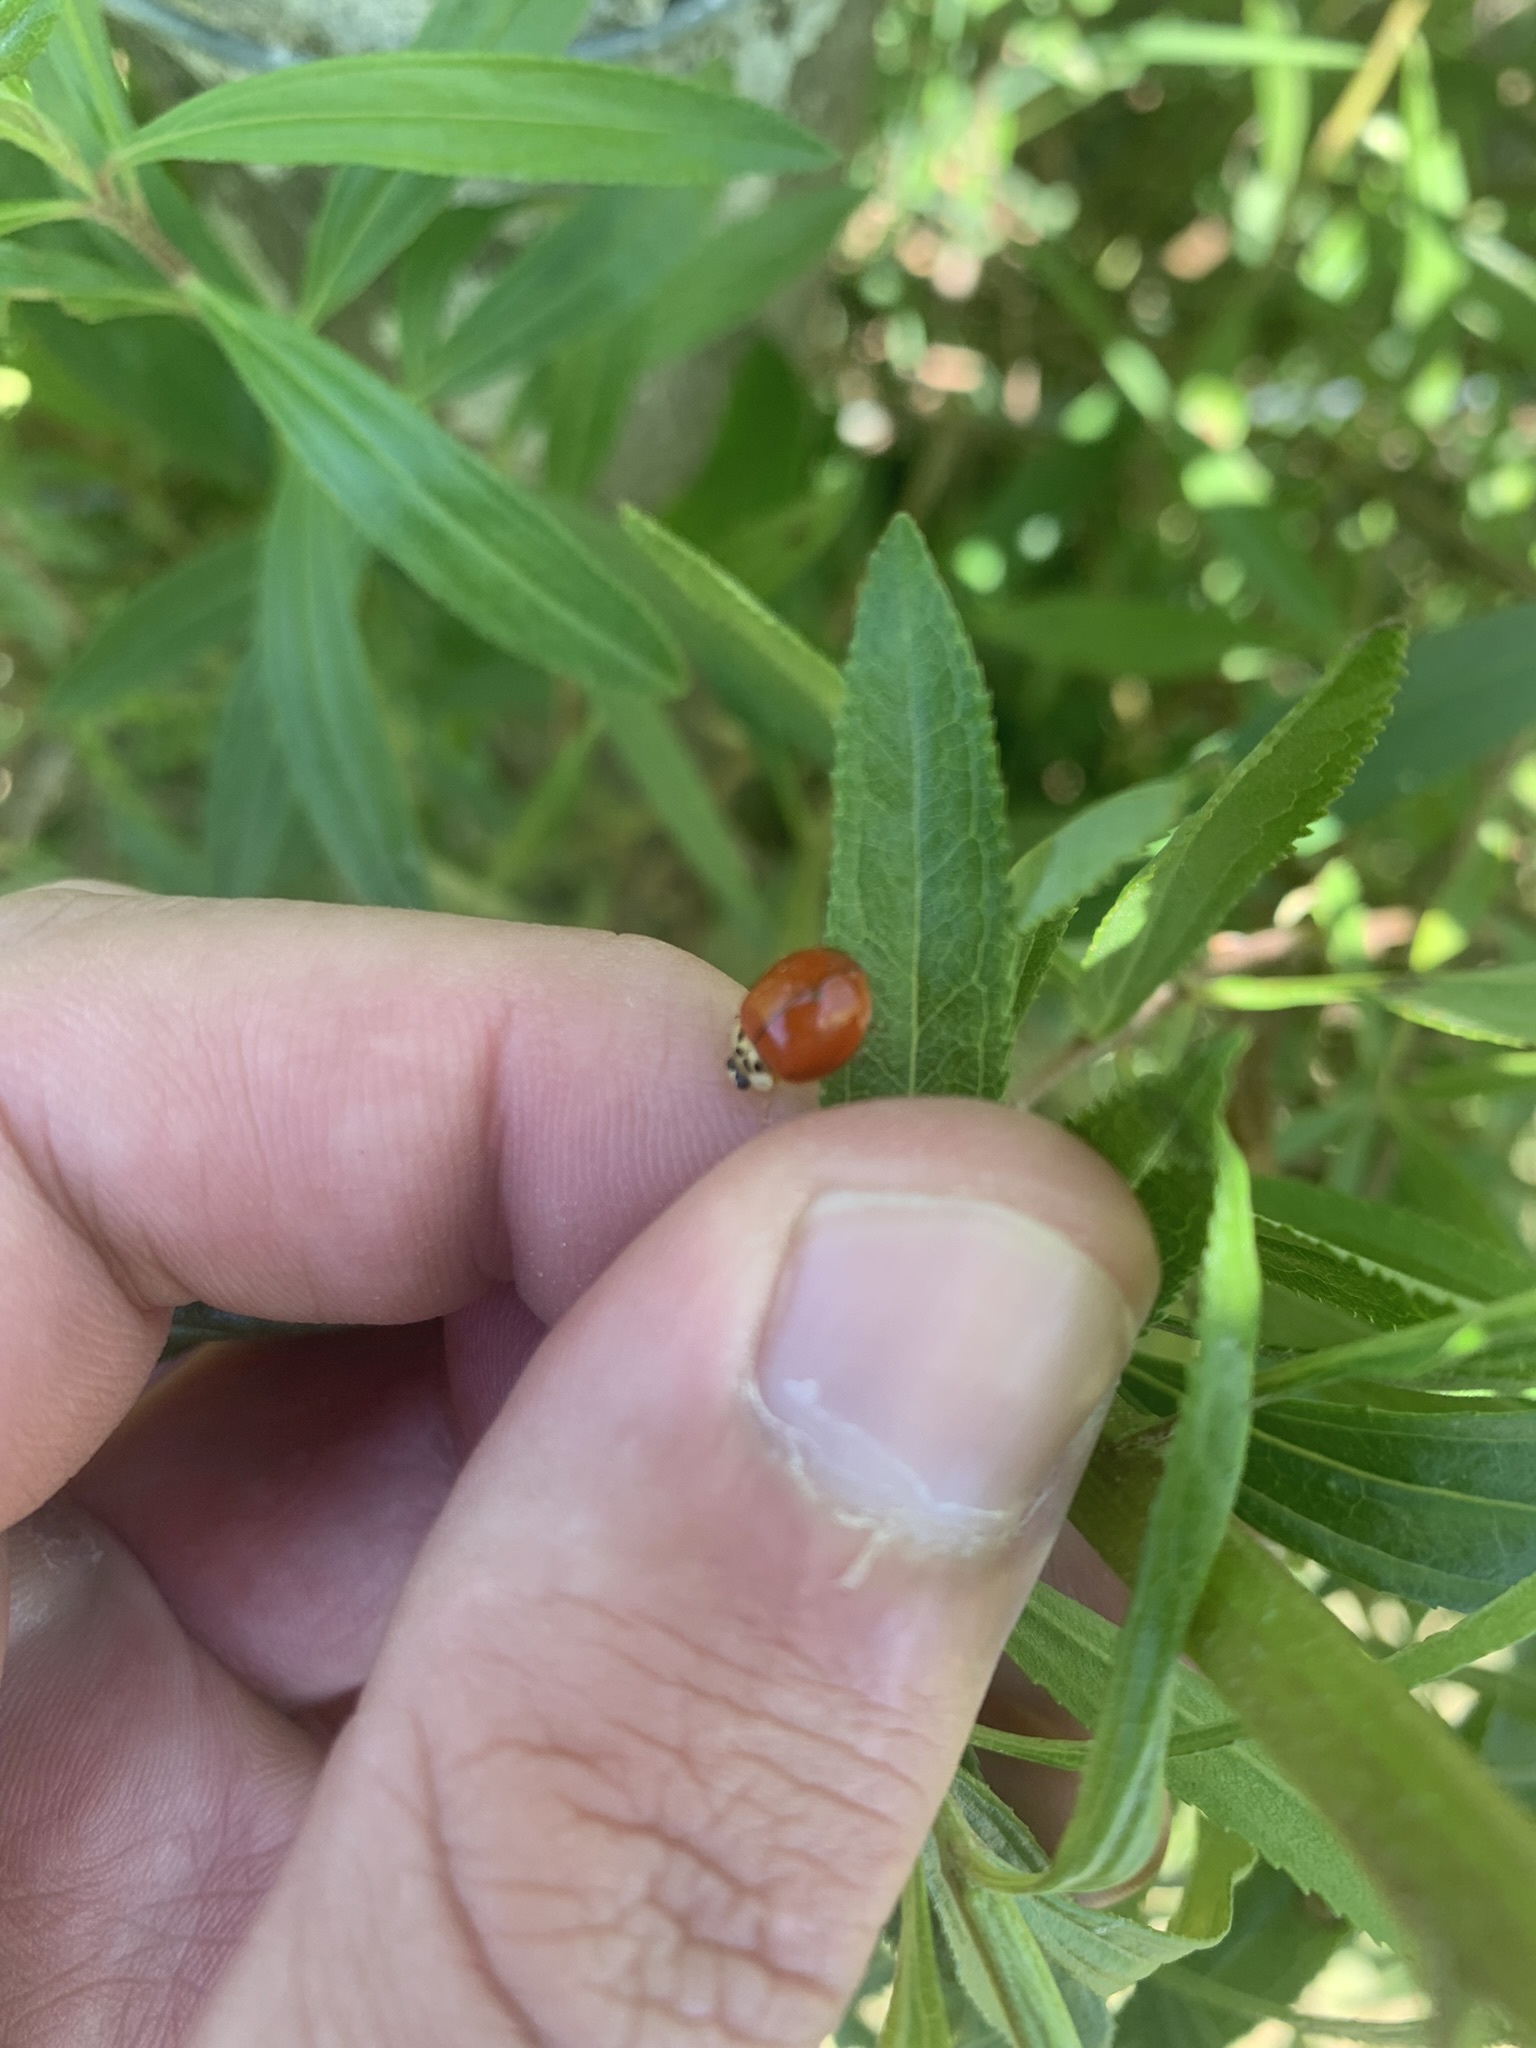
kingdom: Animalia
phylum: Arthropoda
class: Insecta
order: Coleoptera
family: Coccinellidae
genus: Harmonia
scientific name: Harmonia axyridis
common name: Harlequin ladybird
